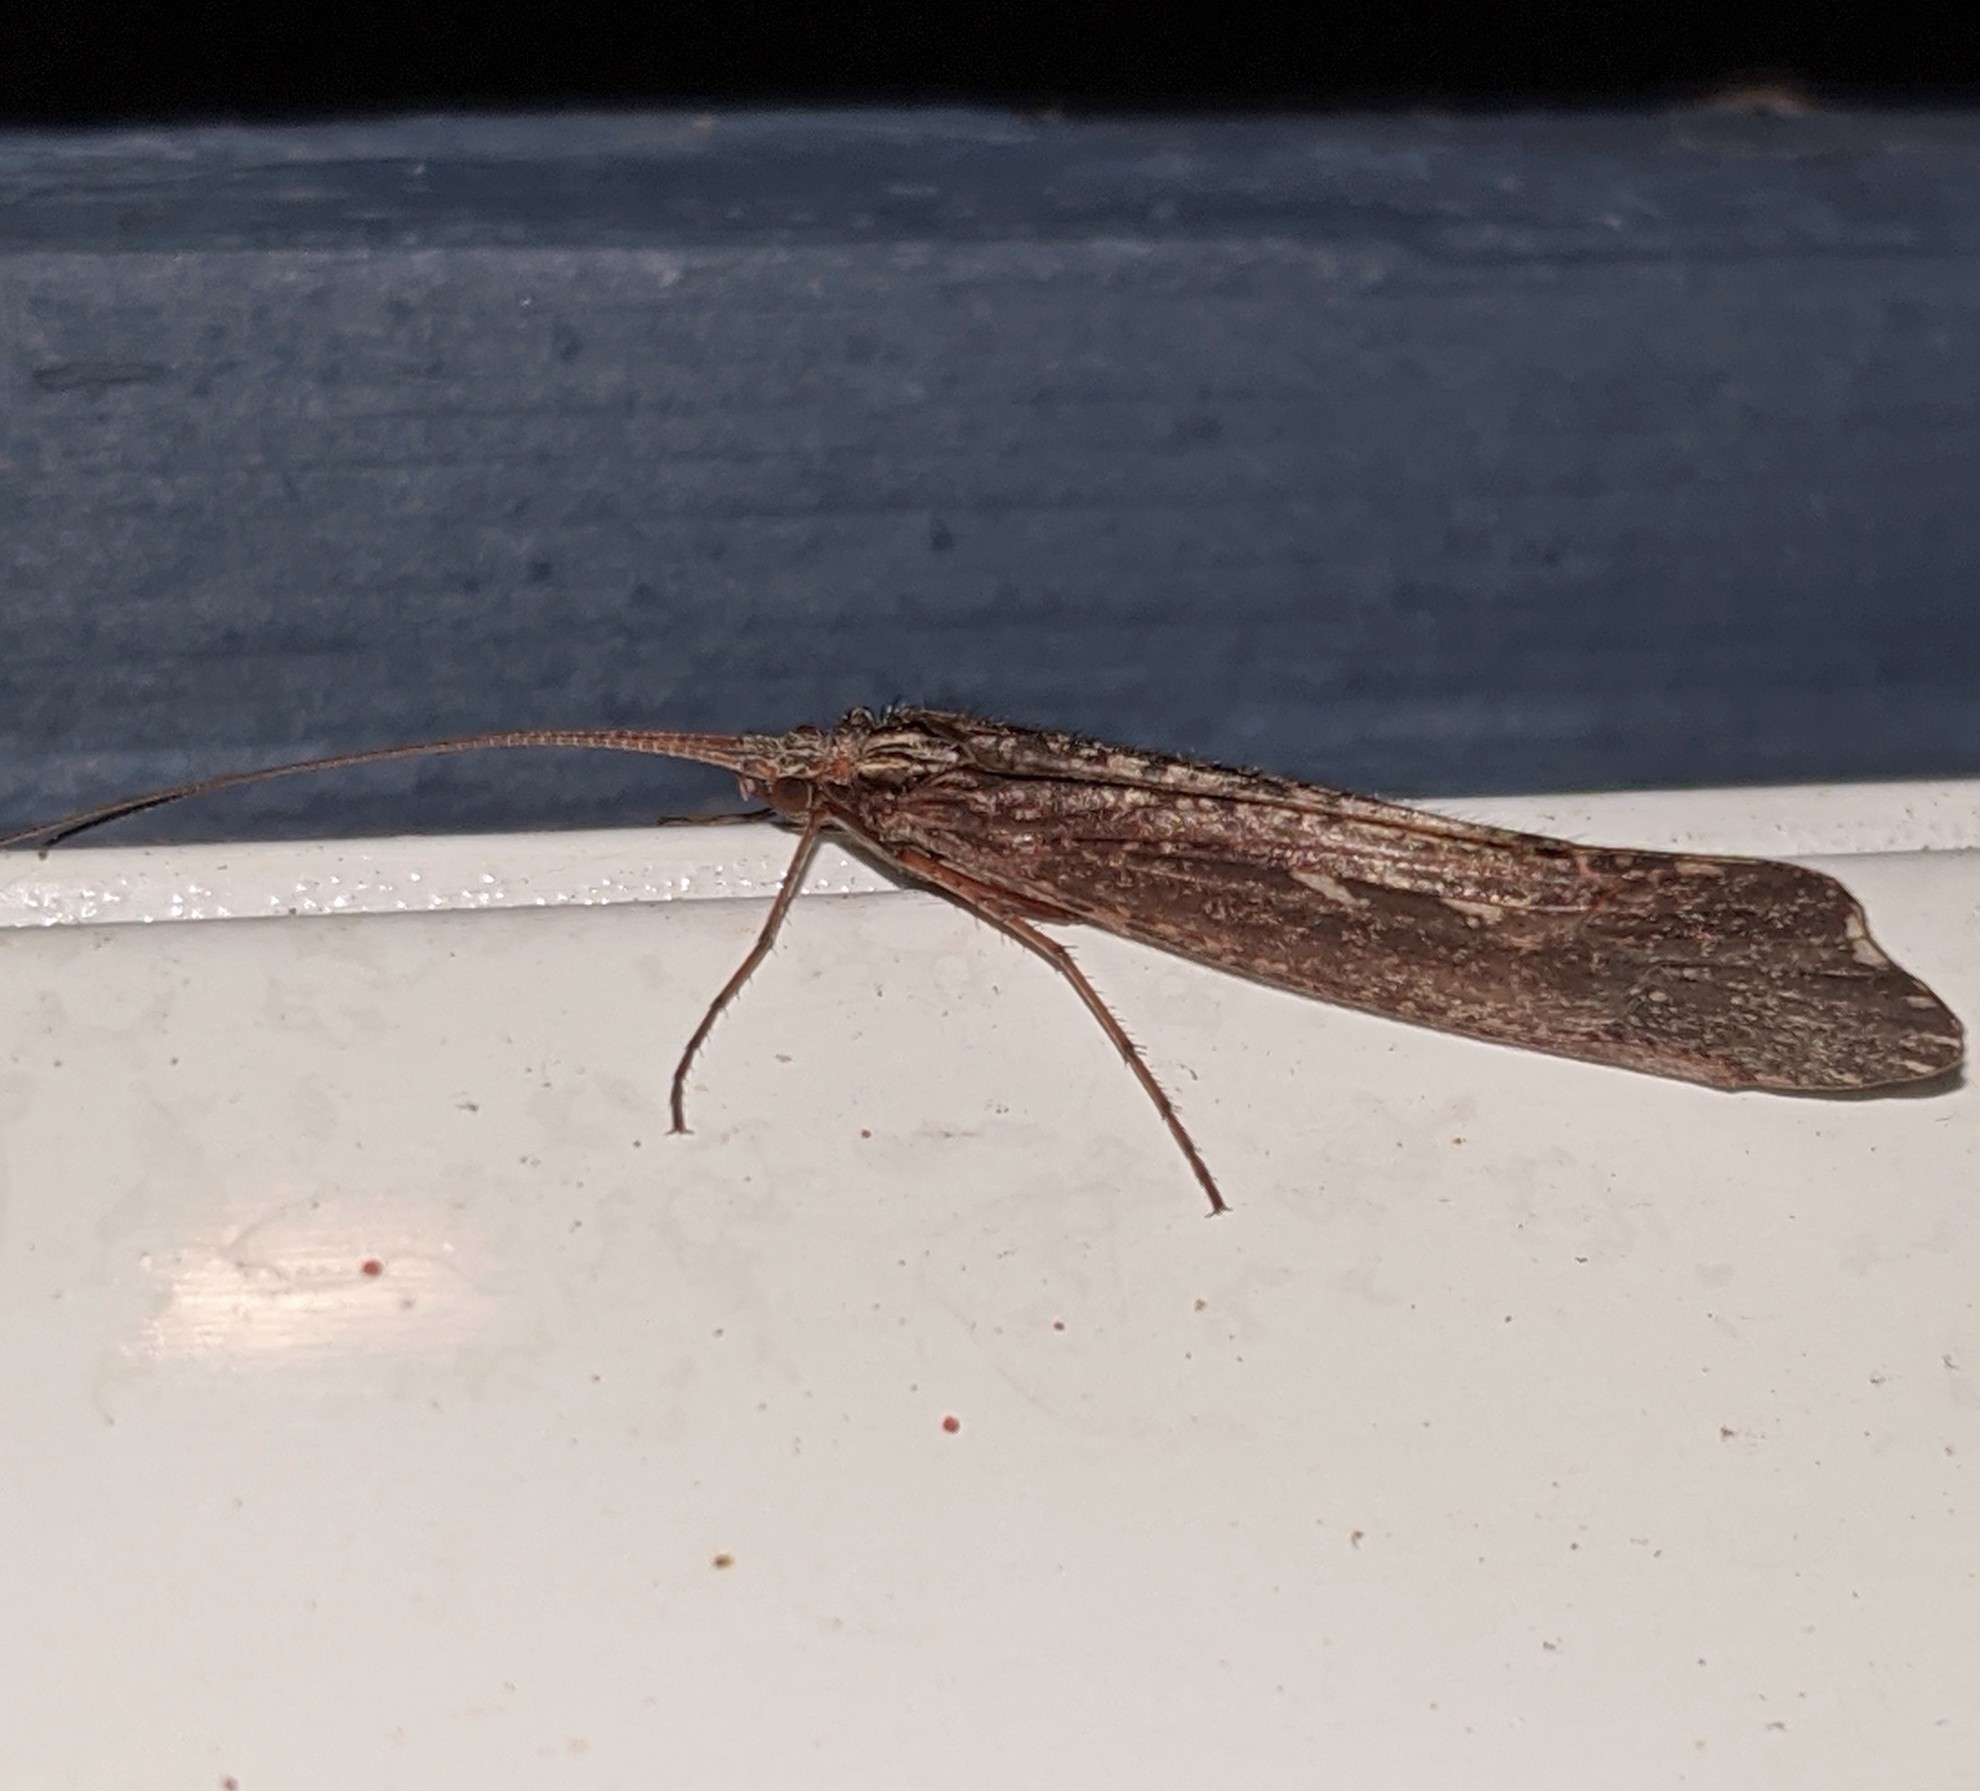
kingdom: Animalia
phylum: Arthropoda
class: Insecta
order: Trichoptera
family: Limnephilidae
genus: Glyphopsyche
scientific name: Glyphopsyche irrorata
